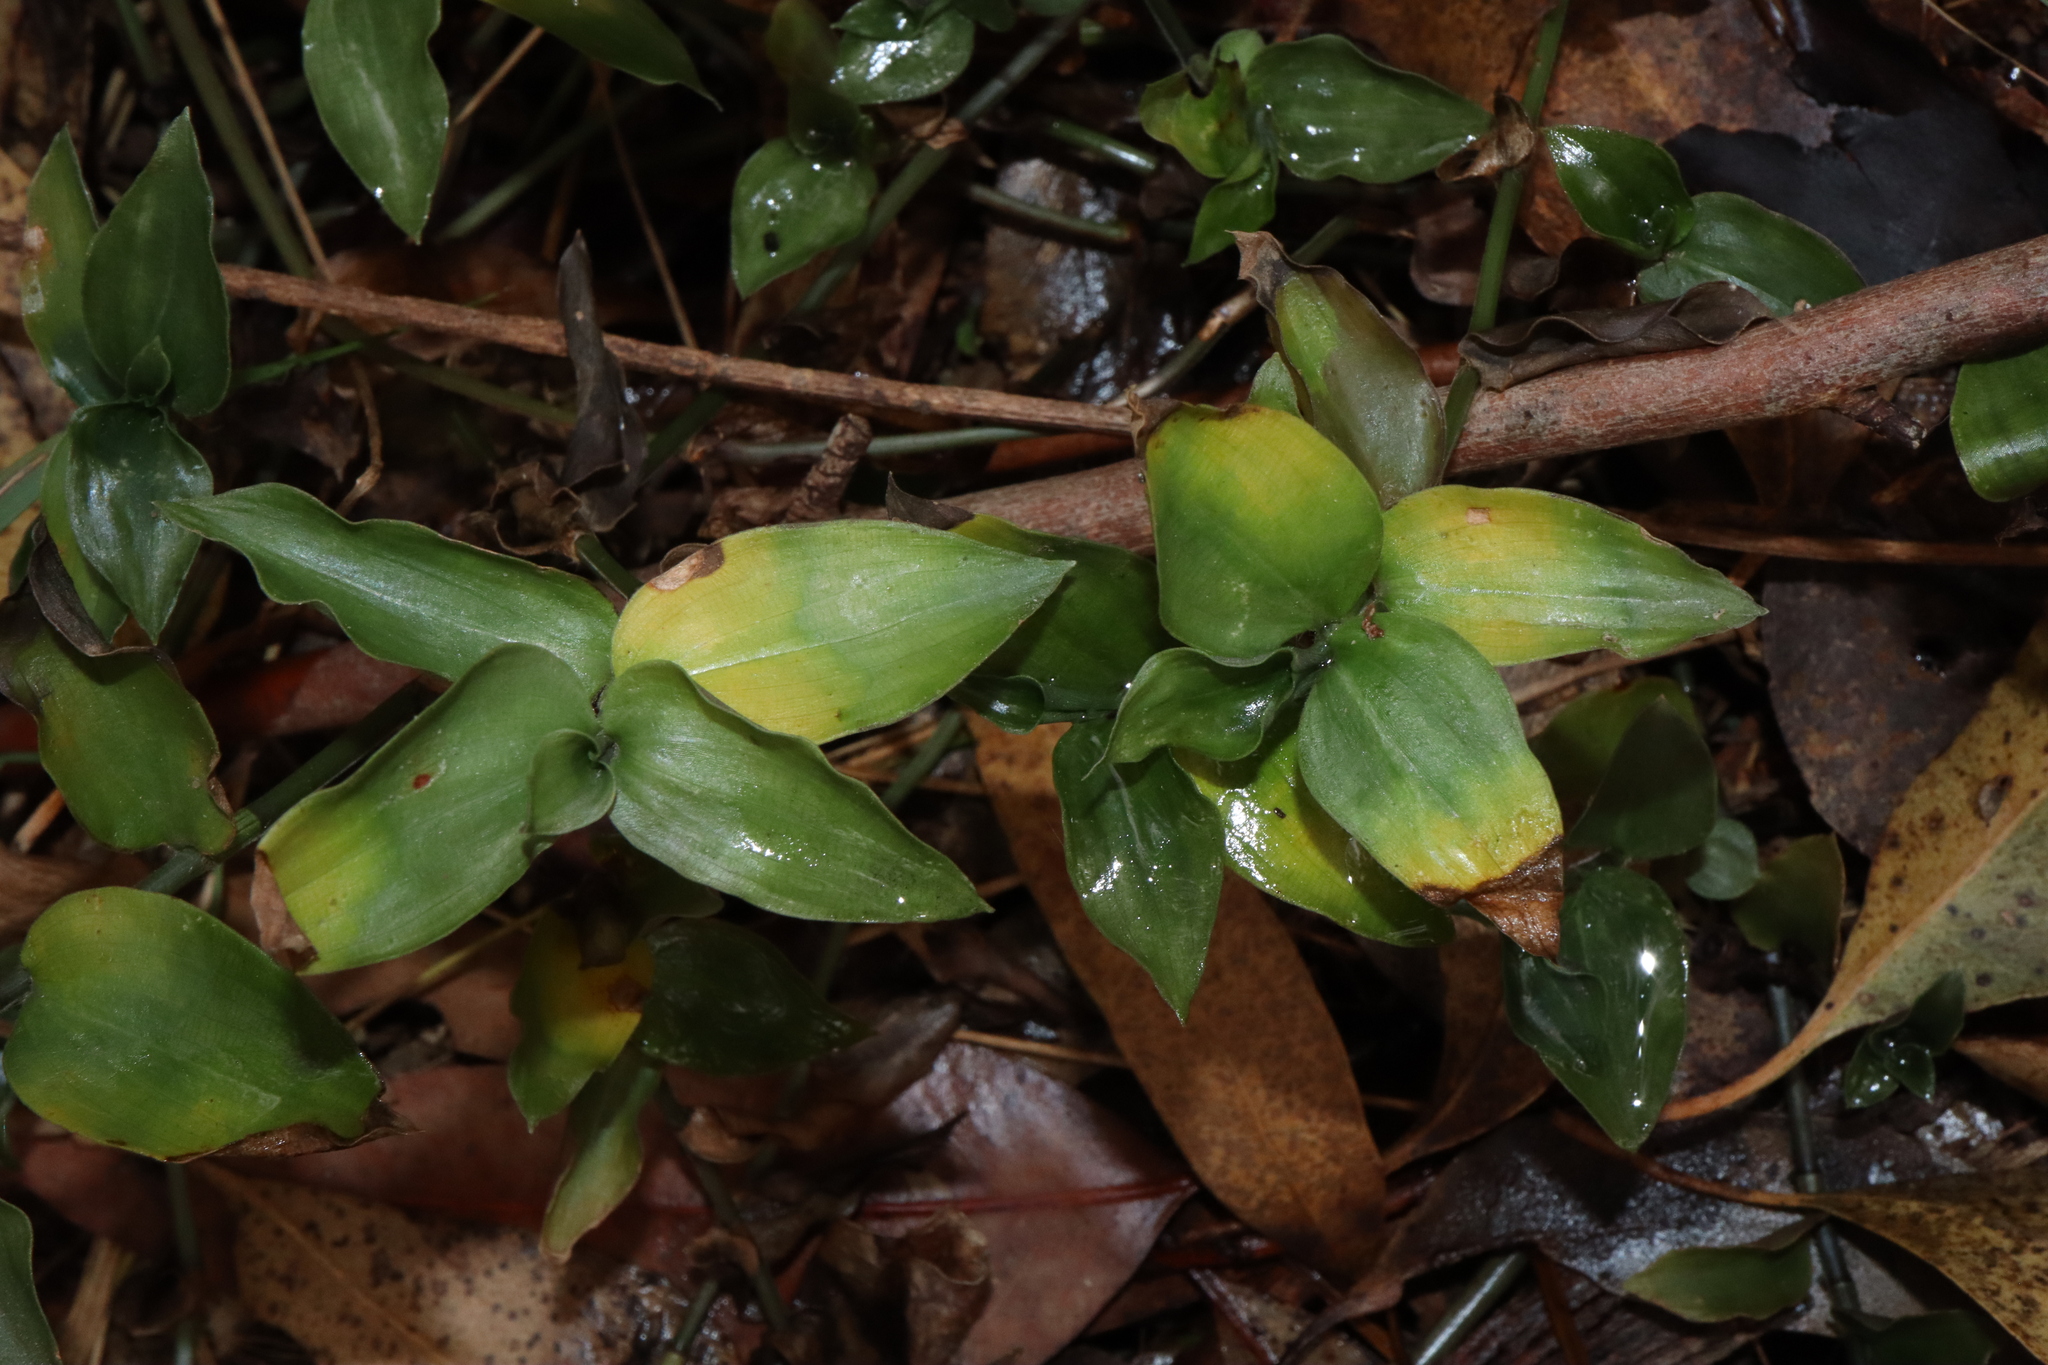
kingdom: Fungi
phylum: Basidiomycota
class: Exobasidiomycetes
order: Exobasidiales
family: Brachybasidiaceae
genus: Kordyana
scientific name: Kordyana brasiliensis
